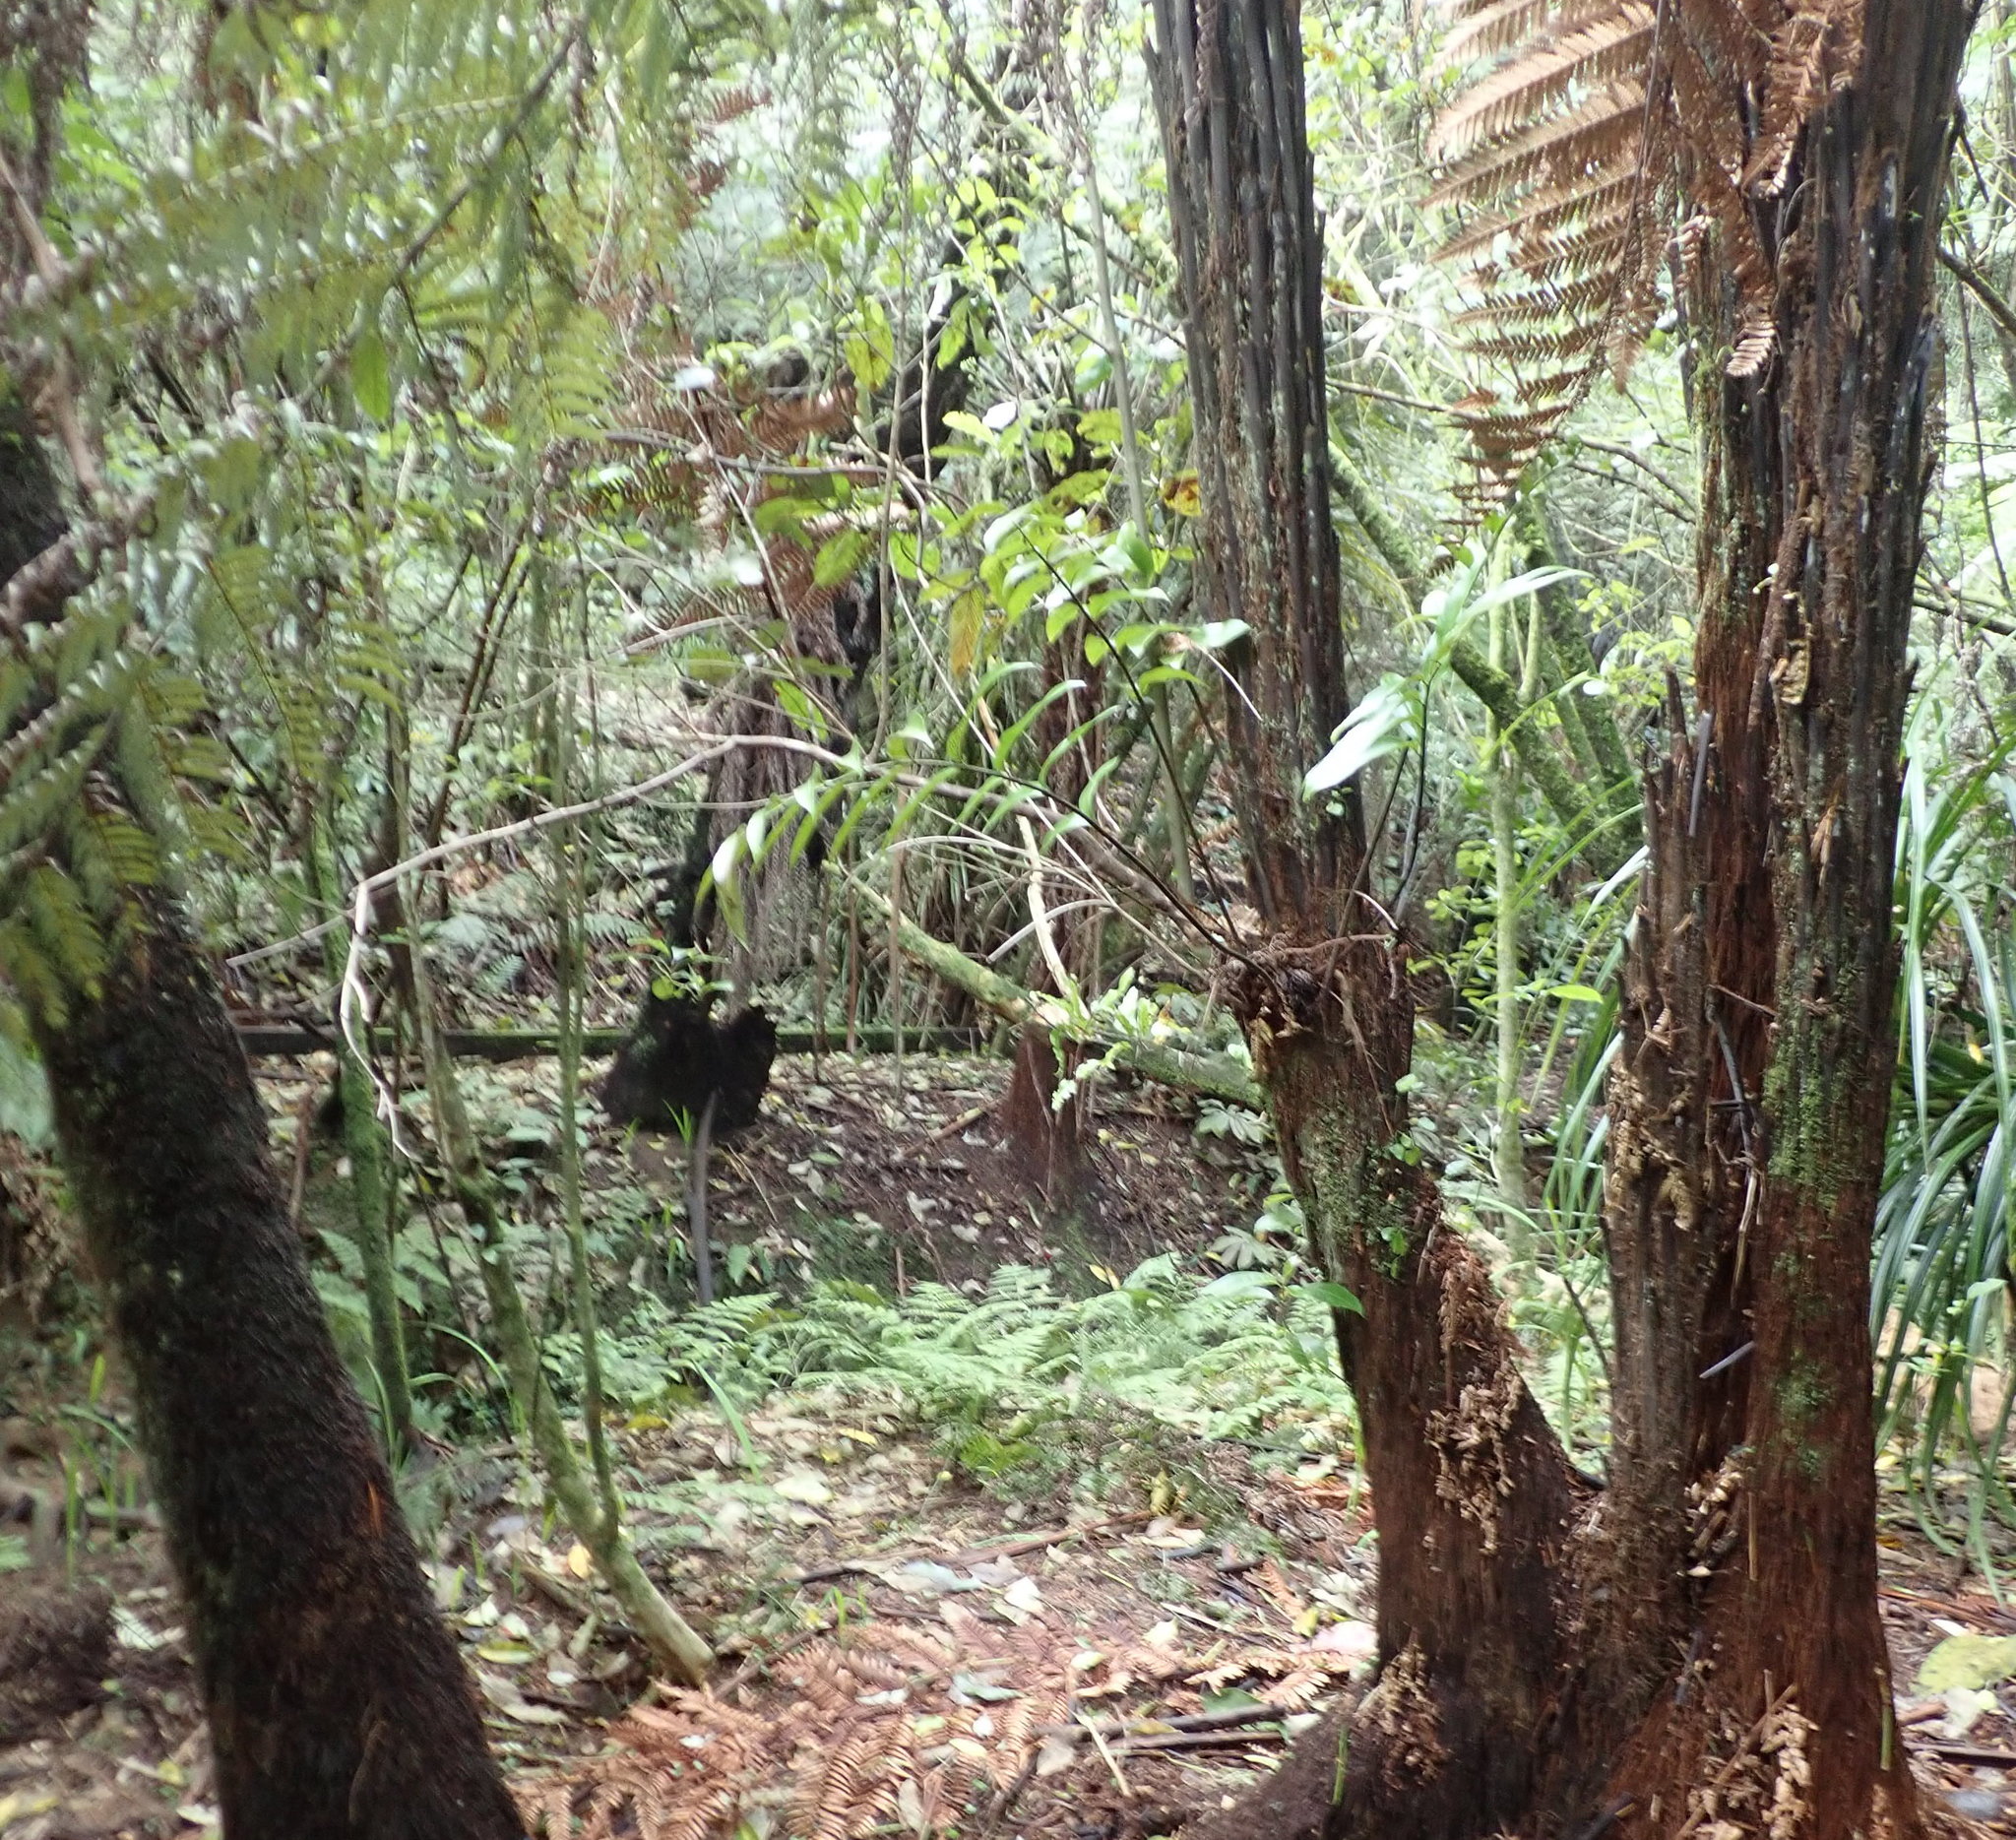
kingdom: Plantae
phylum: Tracheophyta
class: Polypodiopsida
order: Polypodiales
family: Aspleniaceae
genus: Asplenium
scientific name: Asplenium oblongifolium
